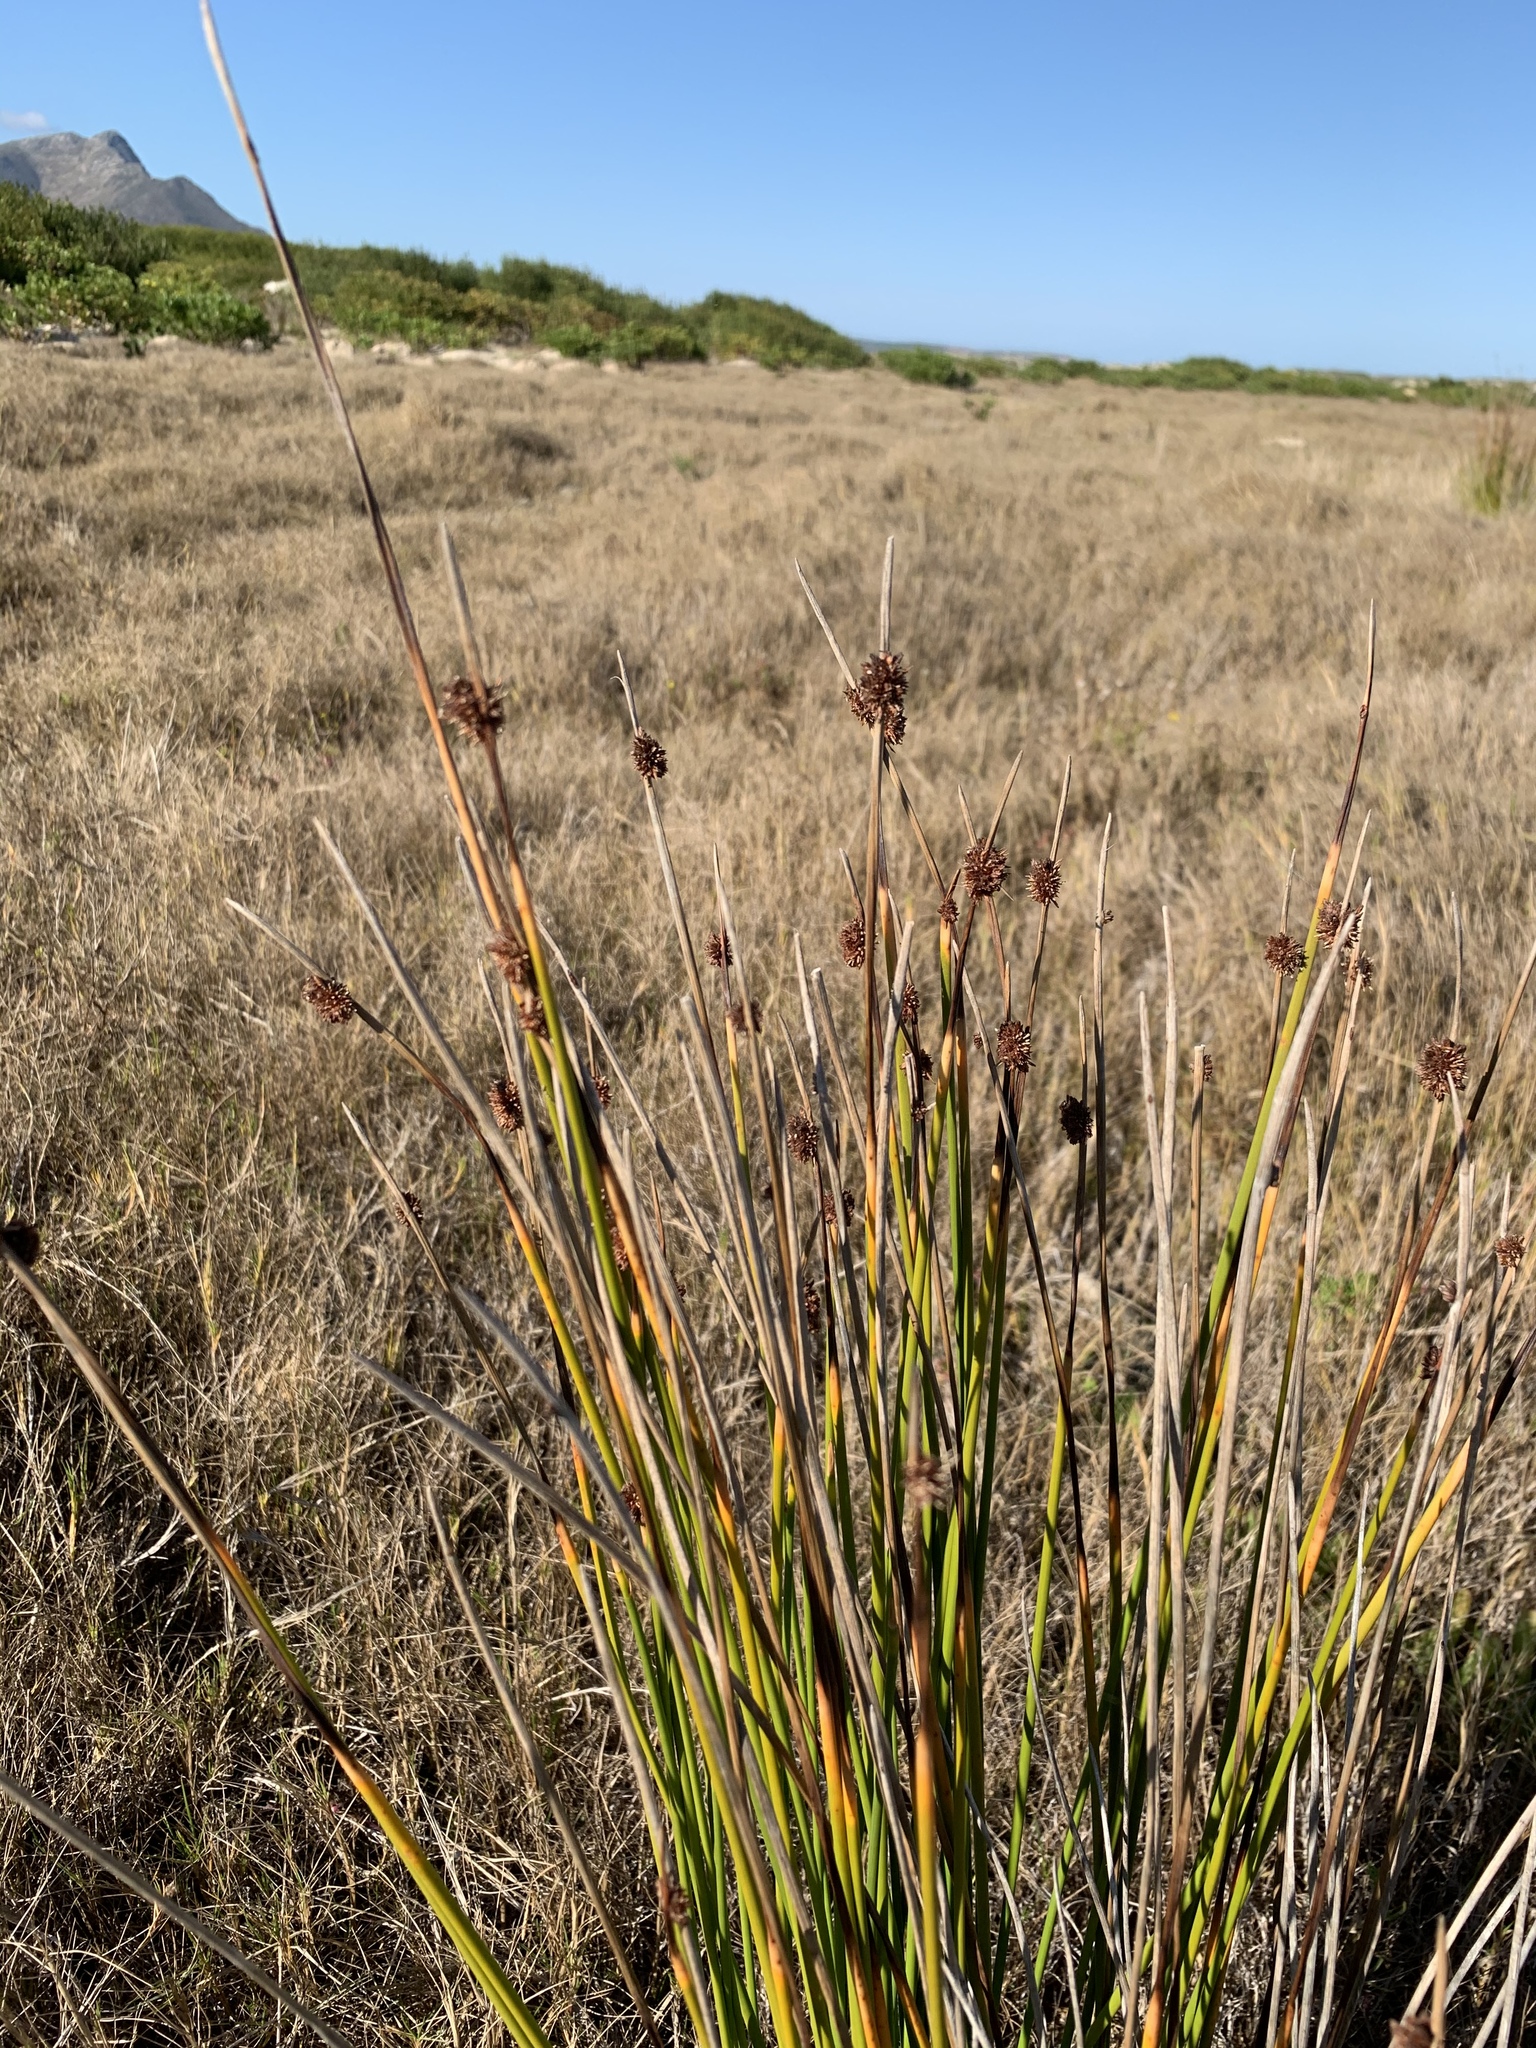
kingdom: Plantae
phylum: Tracheophyta
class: Liliopsida
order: Poales
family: Cyperaceae
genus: Ficinia
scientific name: Ficinia nodosa
